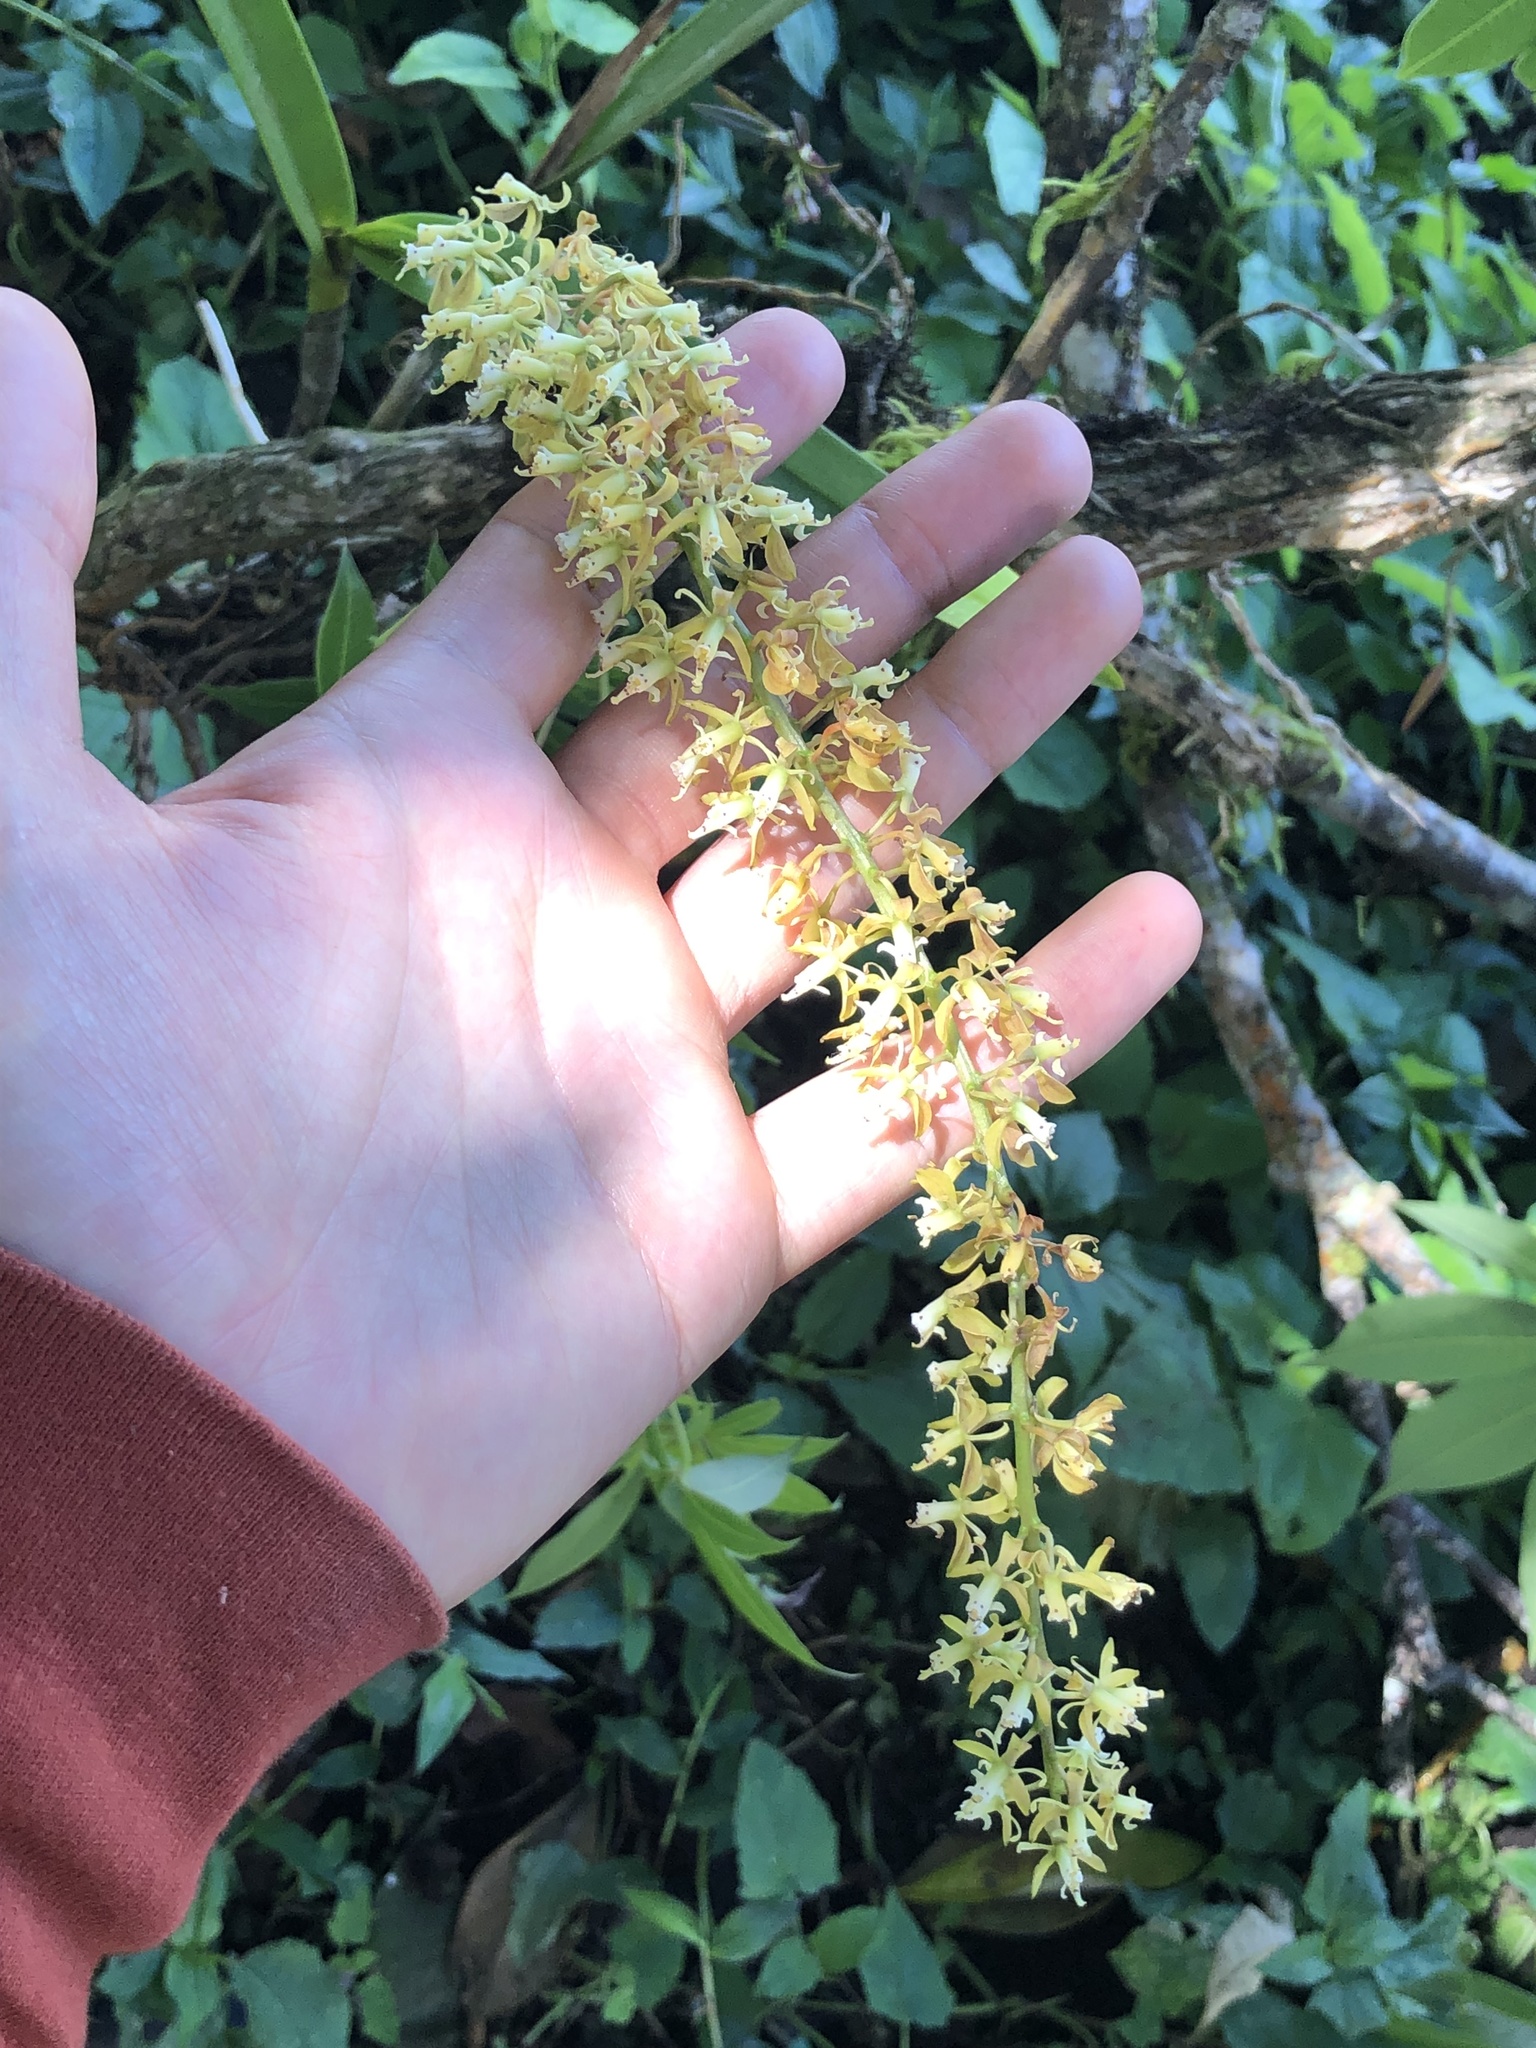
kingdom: Plantae
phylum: Tracheophyta
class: Liliopsida
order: Asparagales
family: Orchidaceae
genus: Epidendrum
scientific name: Epidendrum cylindrostachys
